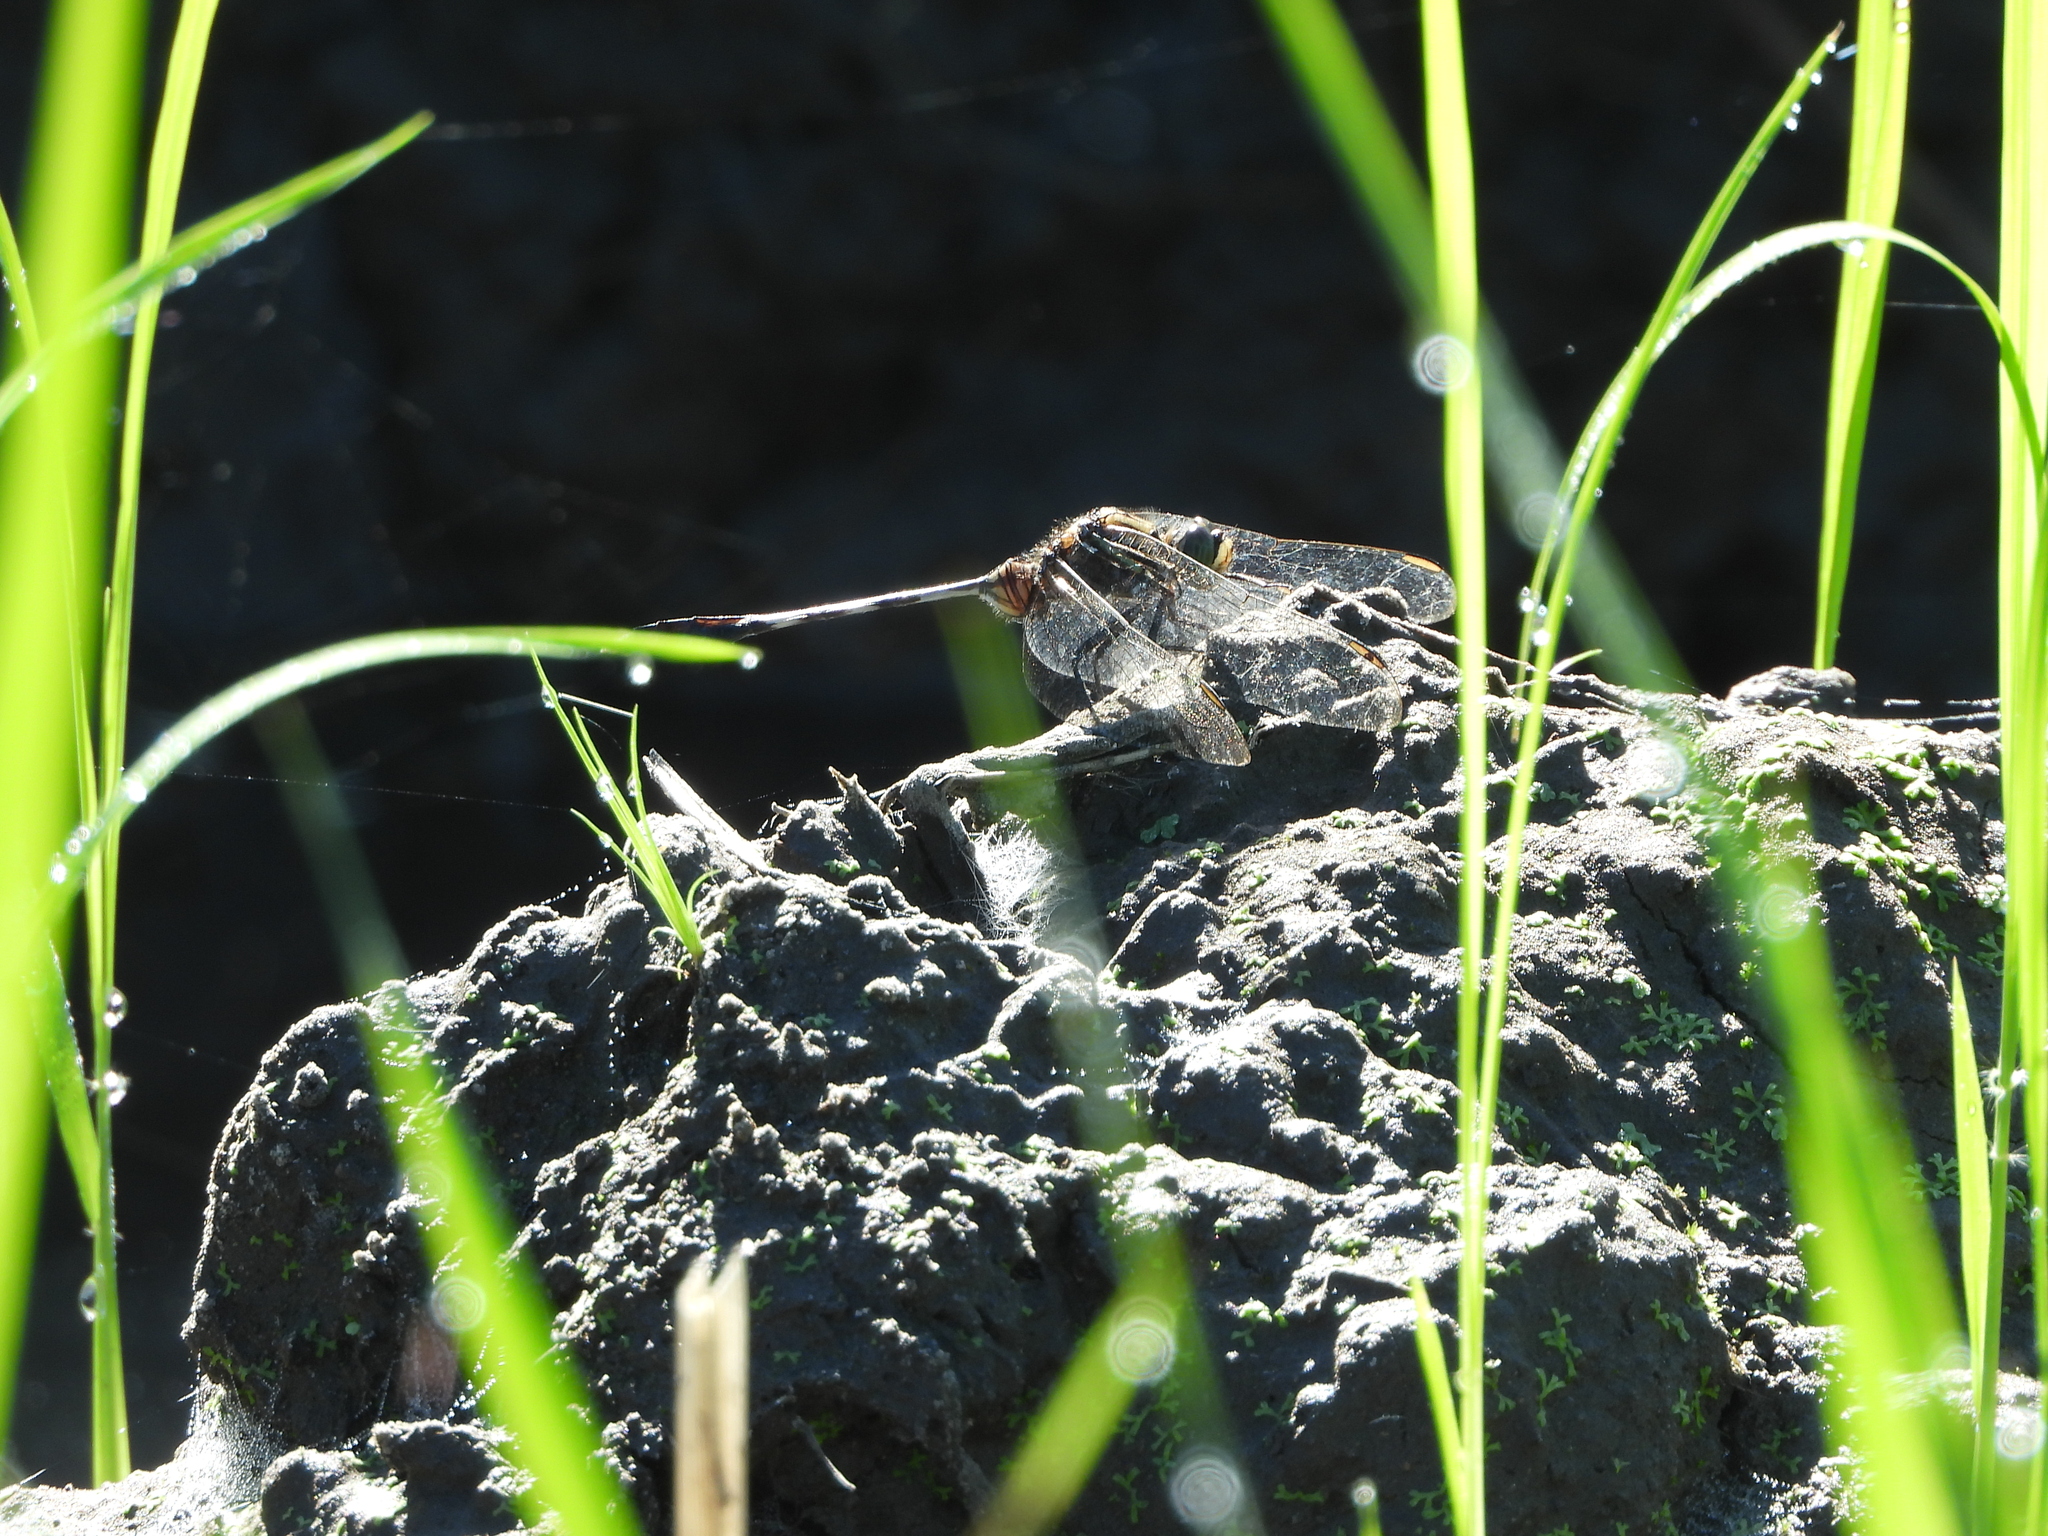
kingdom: Animalia
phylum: Arthropoda
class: Insecta
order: Odonata
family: Libellulidae
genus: Orthetrum
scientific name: Orthetrum sabina
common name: Slender skimmer
